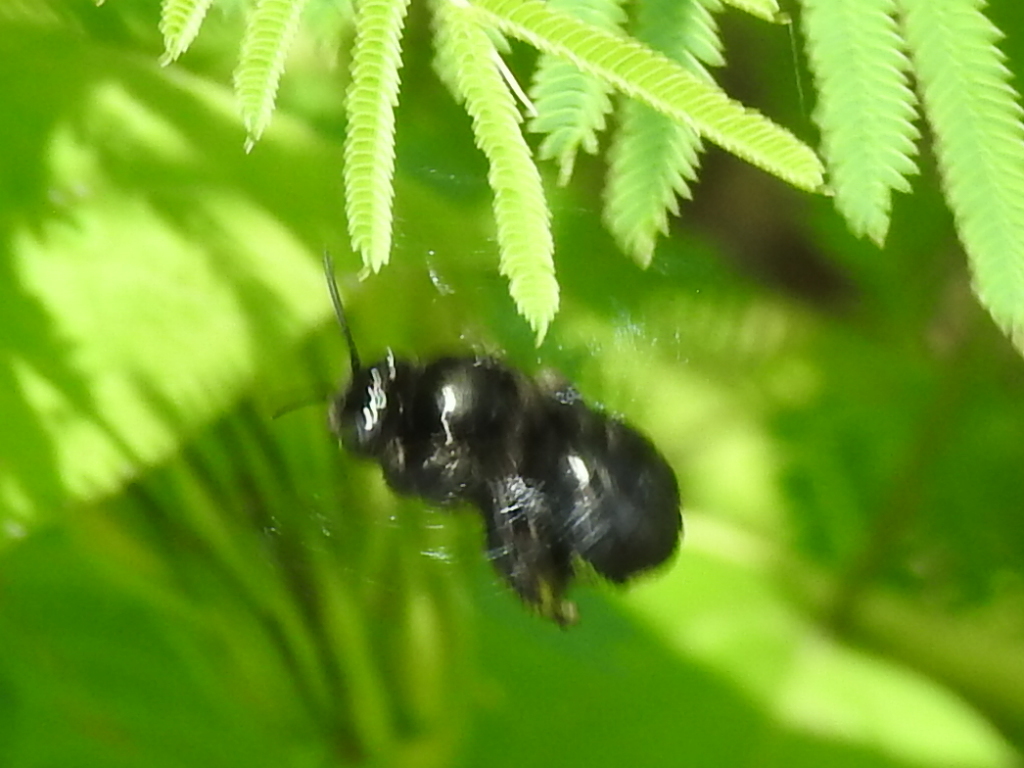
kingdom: Animalia
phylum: Arthropoda
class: Insecta
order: Hymenoptera
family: Apidae
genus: Melissodes
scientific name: Melissodes bimaculatus
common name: Two-spotted long-horned bee
